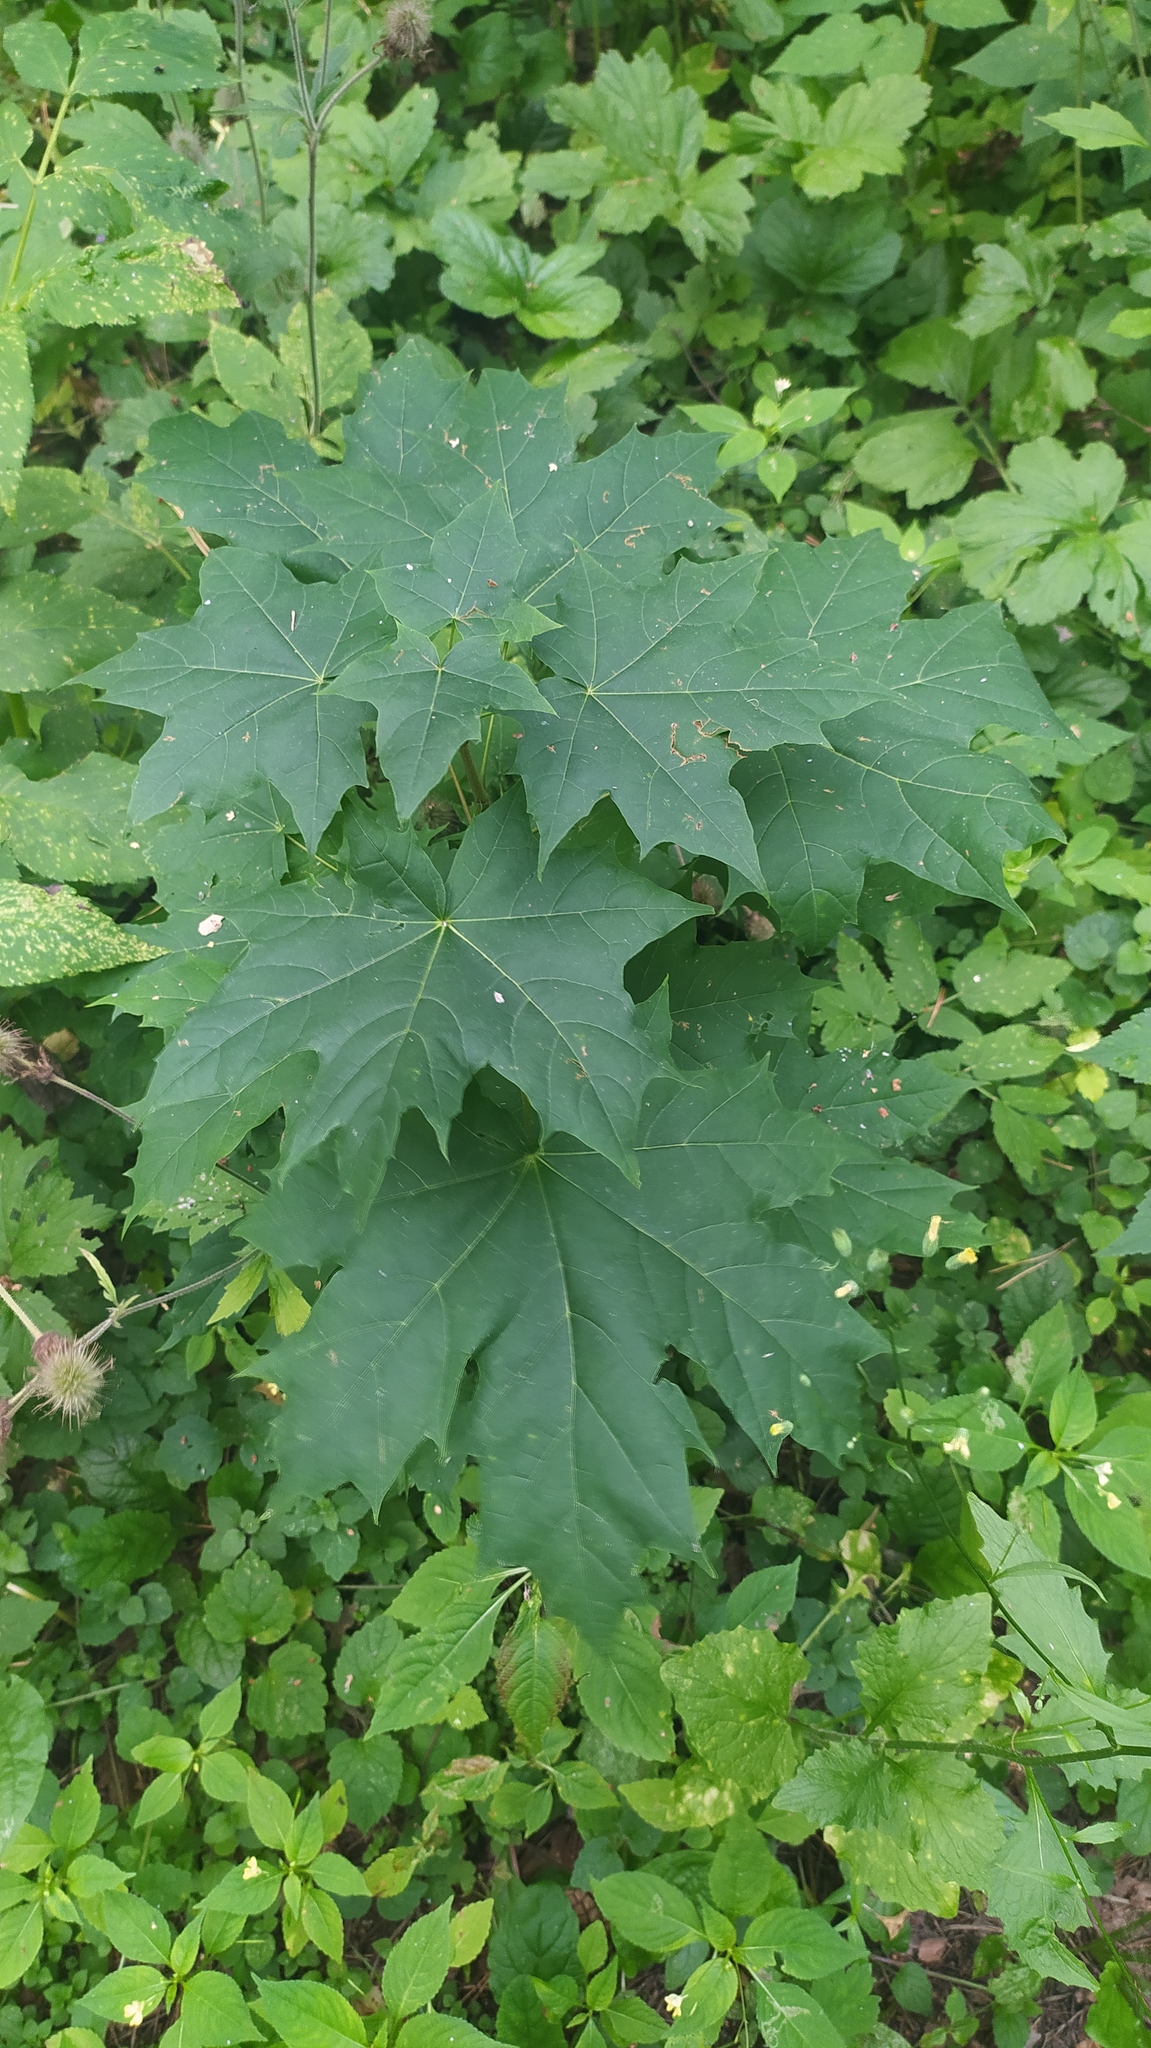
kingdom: Plantae
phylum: Tracheophyta
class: Magnoliopsida
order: Sapindales
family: Sapindaceae
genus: Acer
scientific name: Acer platanoides
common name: Norway maple
